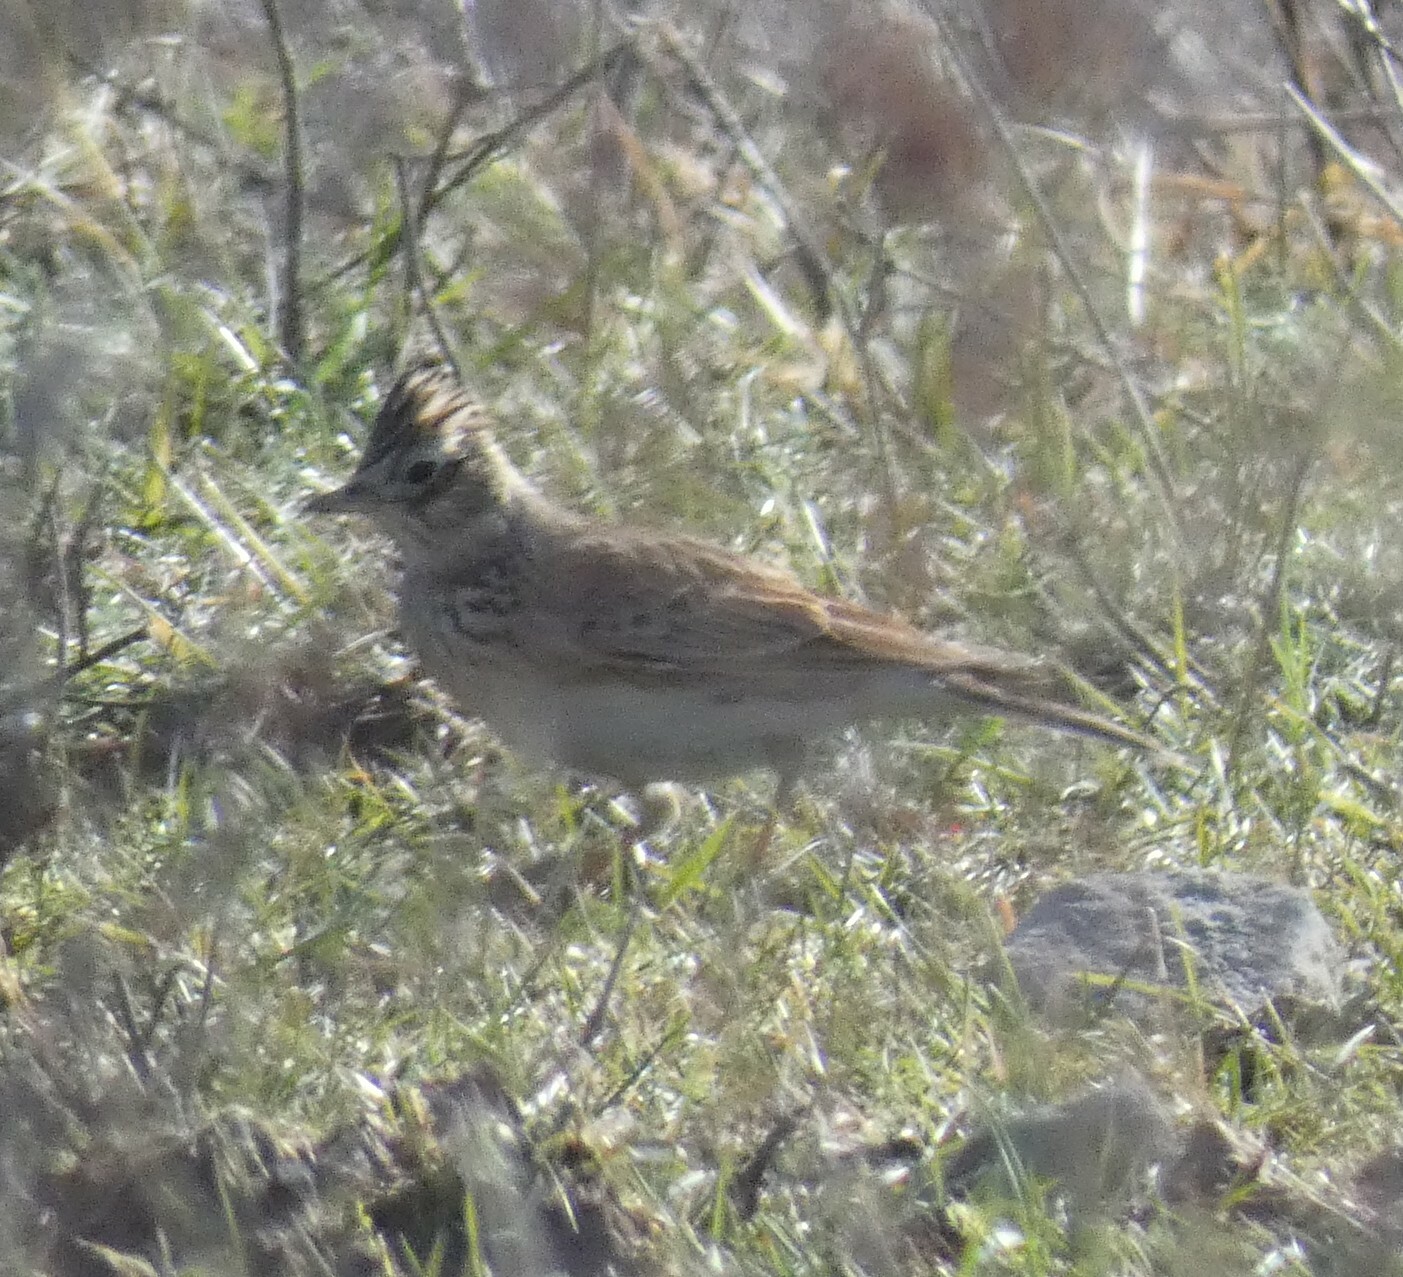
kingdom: Animalia
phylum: Chordata
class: Aves
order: Passeriformes
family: Alaudidae
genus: Alauda
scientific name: Alauda arvensis
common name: Eurasian skylark
